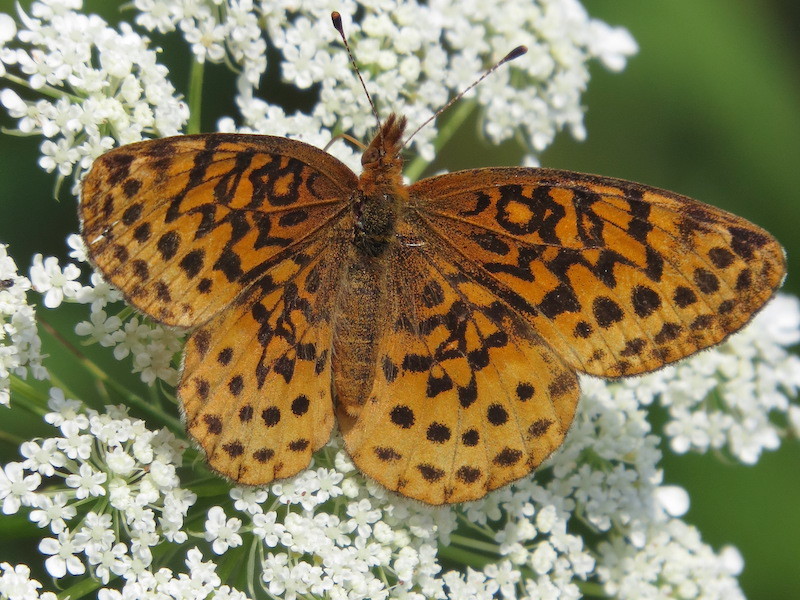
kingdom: Animalia
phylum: Arthropoda
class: Insecta
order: Lepidoptera
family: Nymphalidae
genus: Clossiana
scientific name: Clossiana toddi
